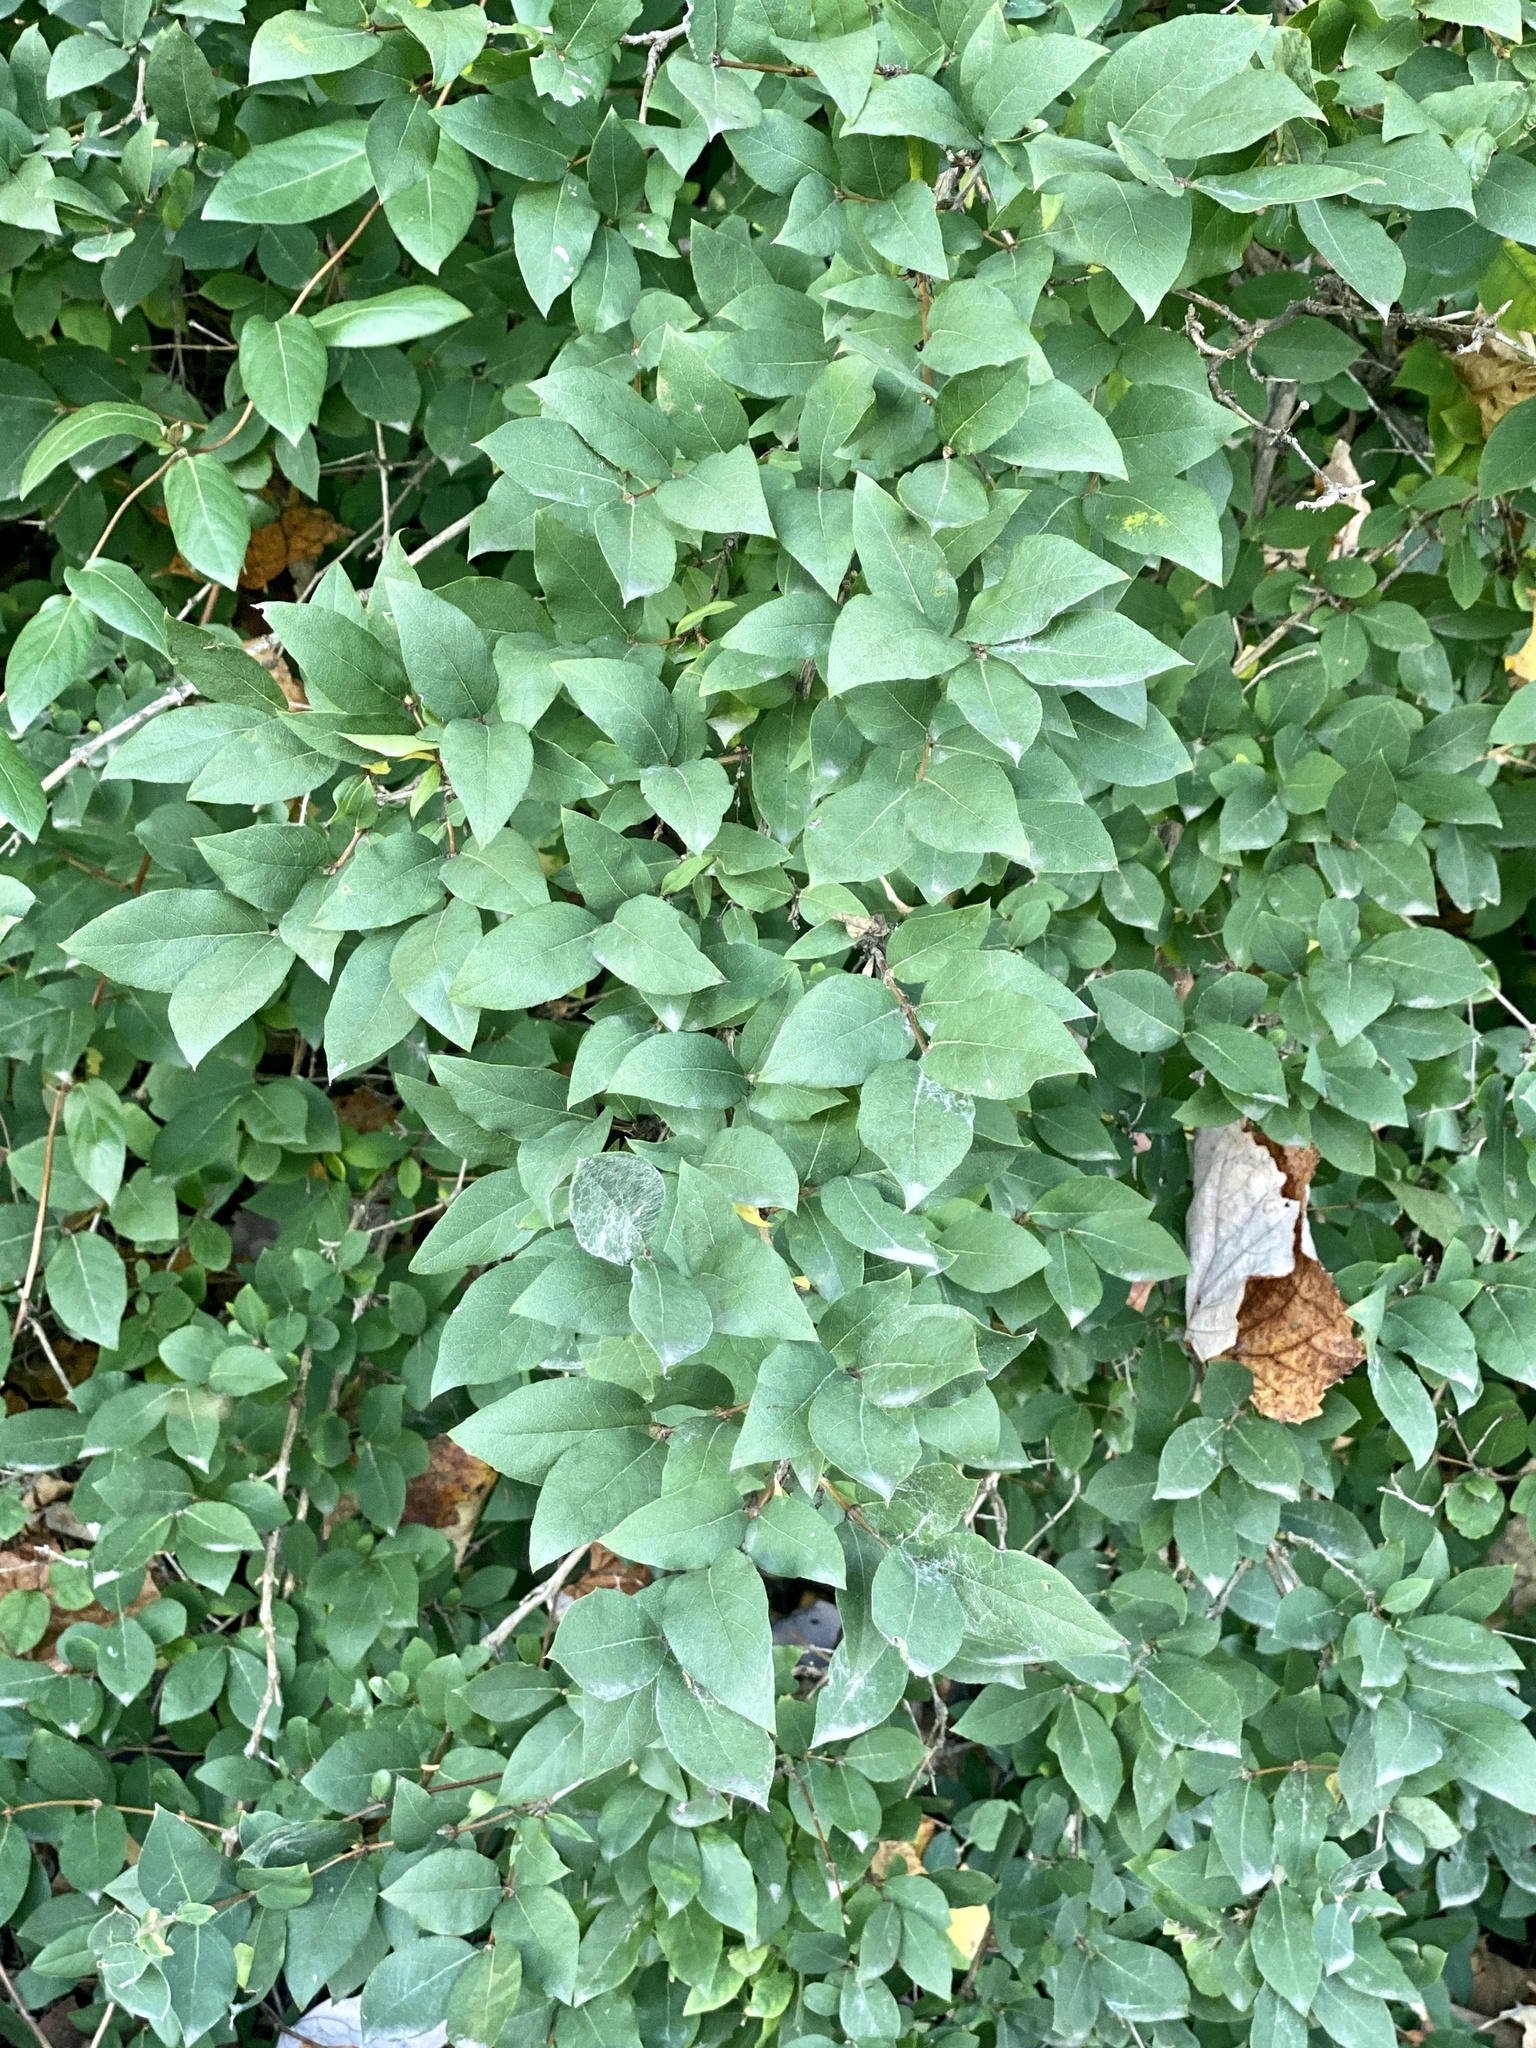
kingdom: Plantae
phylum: Tracheophyta
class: Magnoliopsida
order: Dipsacales
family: Caprifoliaceae
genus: Lonicera
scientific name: Lonicera fragrantissima
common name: Fragrant honeysuckle
